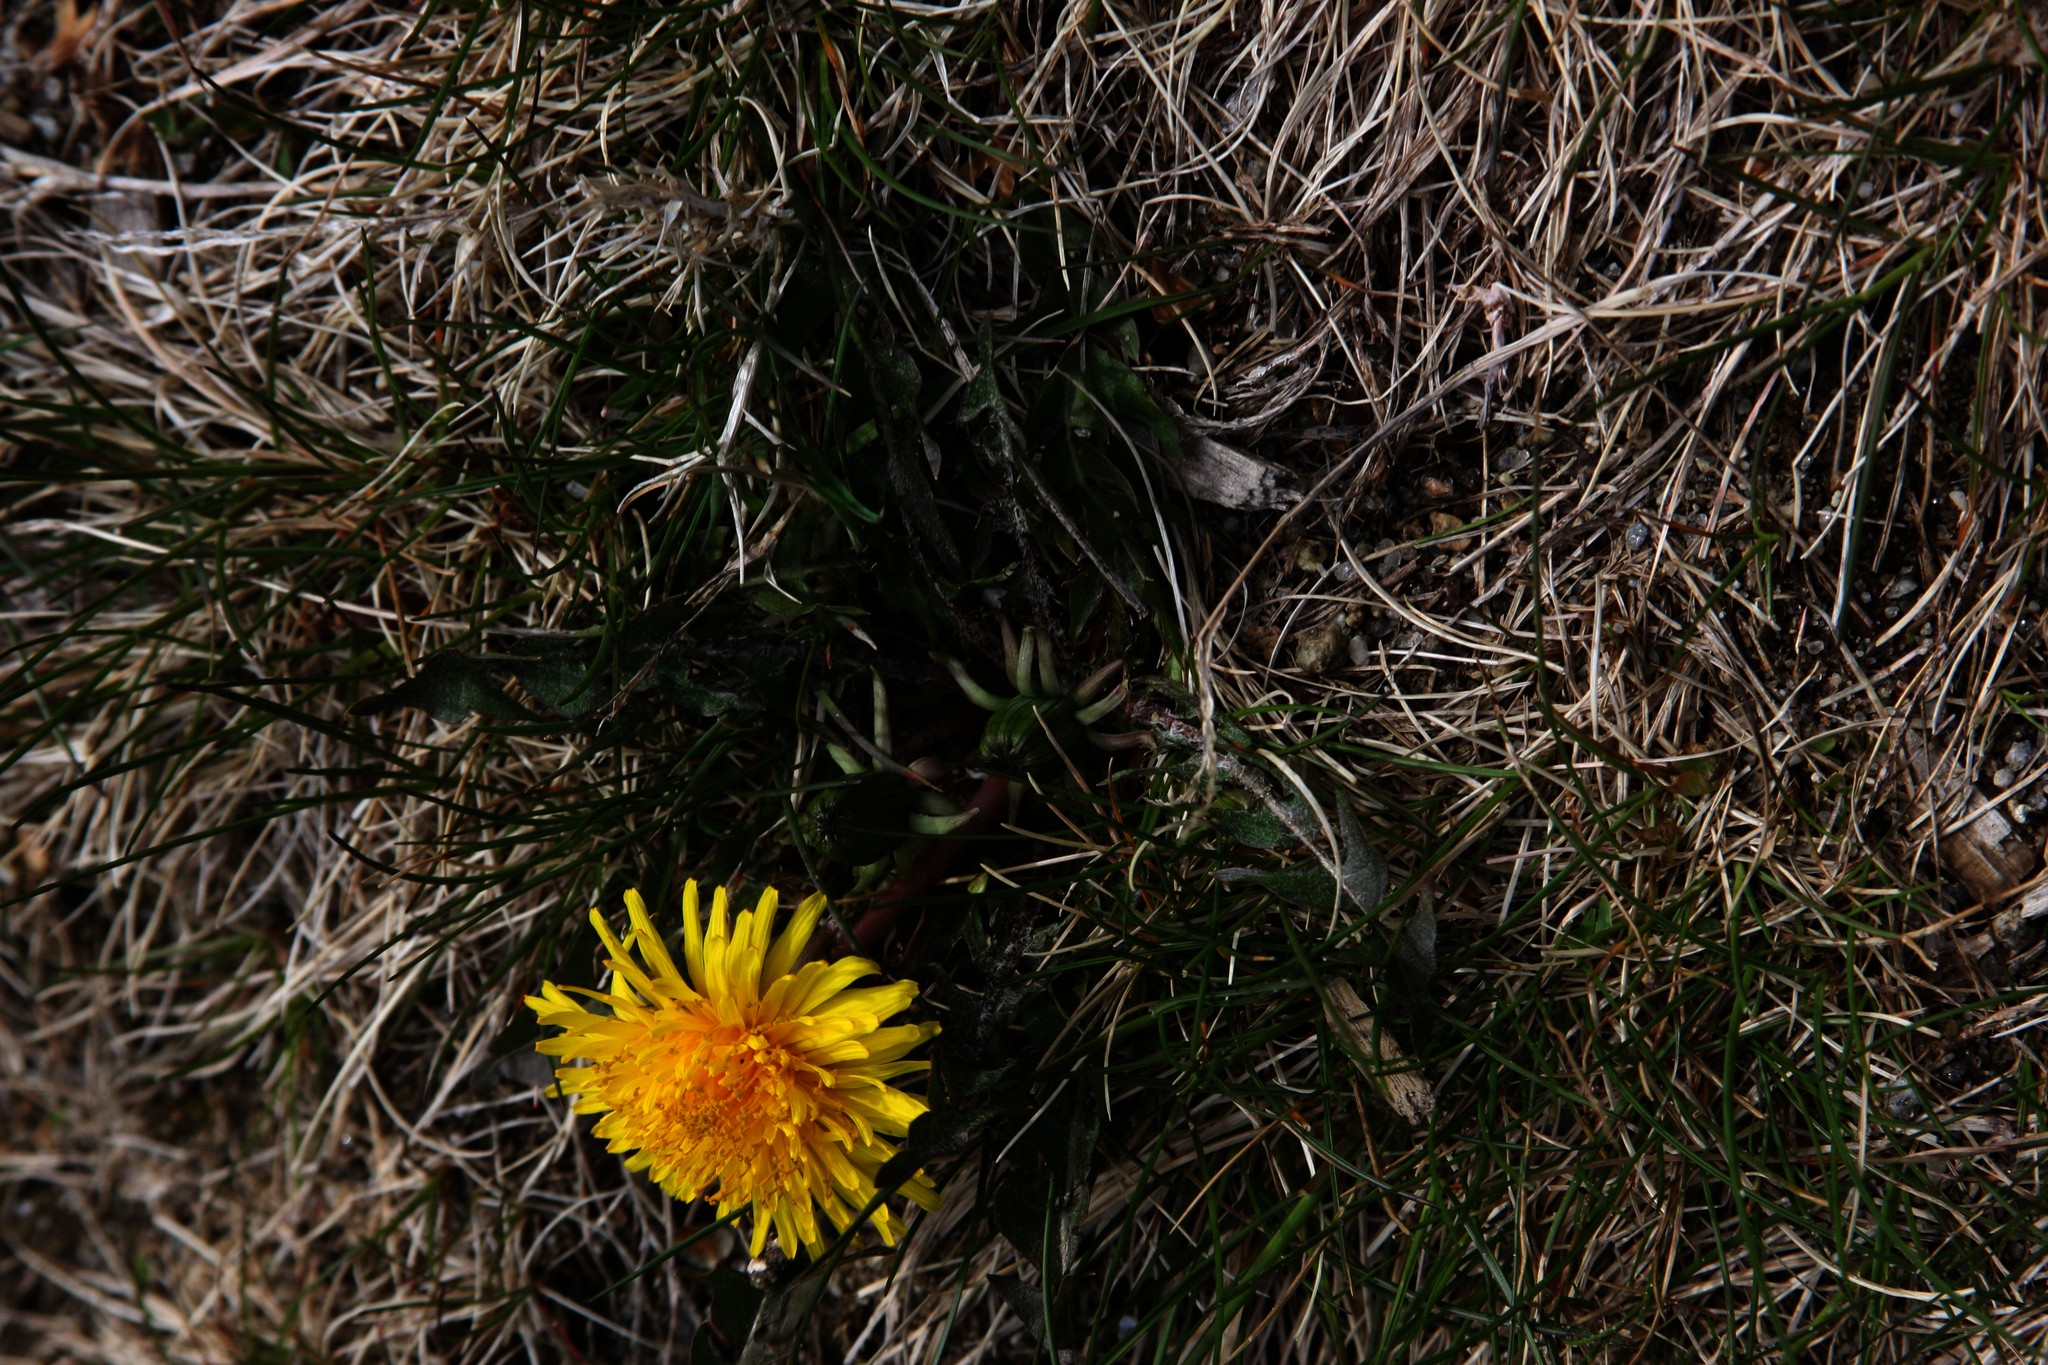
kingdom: Plantae
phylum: Tracheophyta
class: Magnoliopsida
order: Asterales
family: Asteraceae
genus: Taraxacum
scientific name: Taraxacum officinale
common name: Common dandelion
